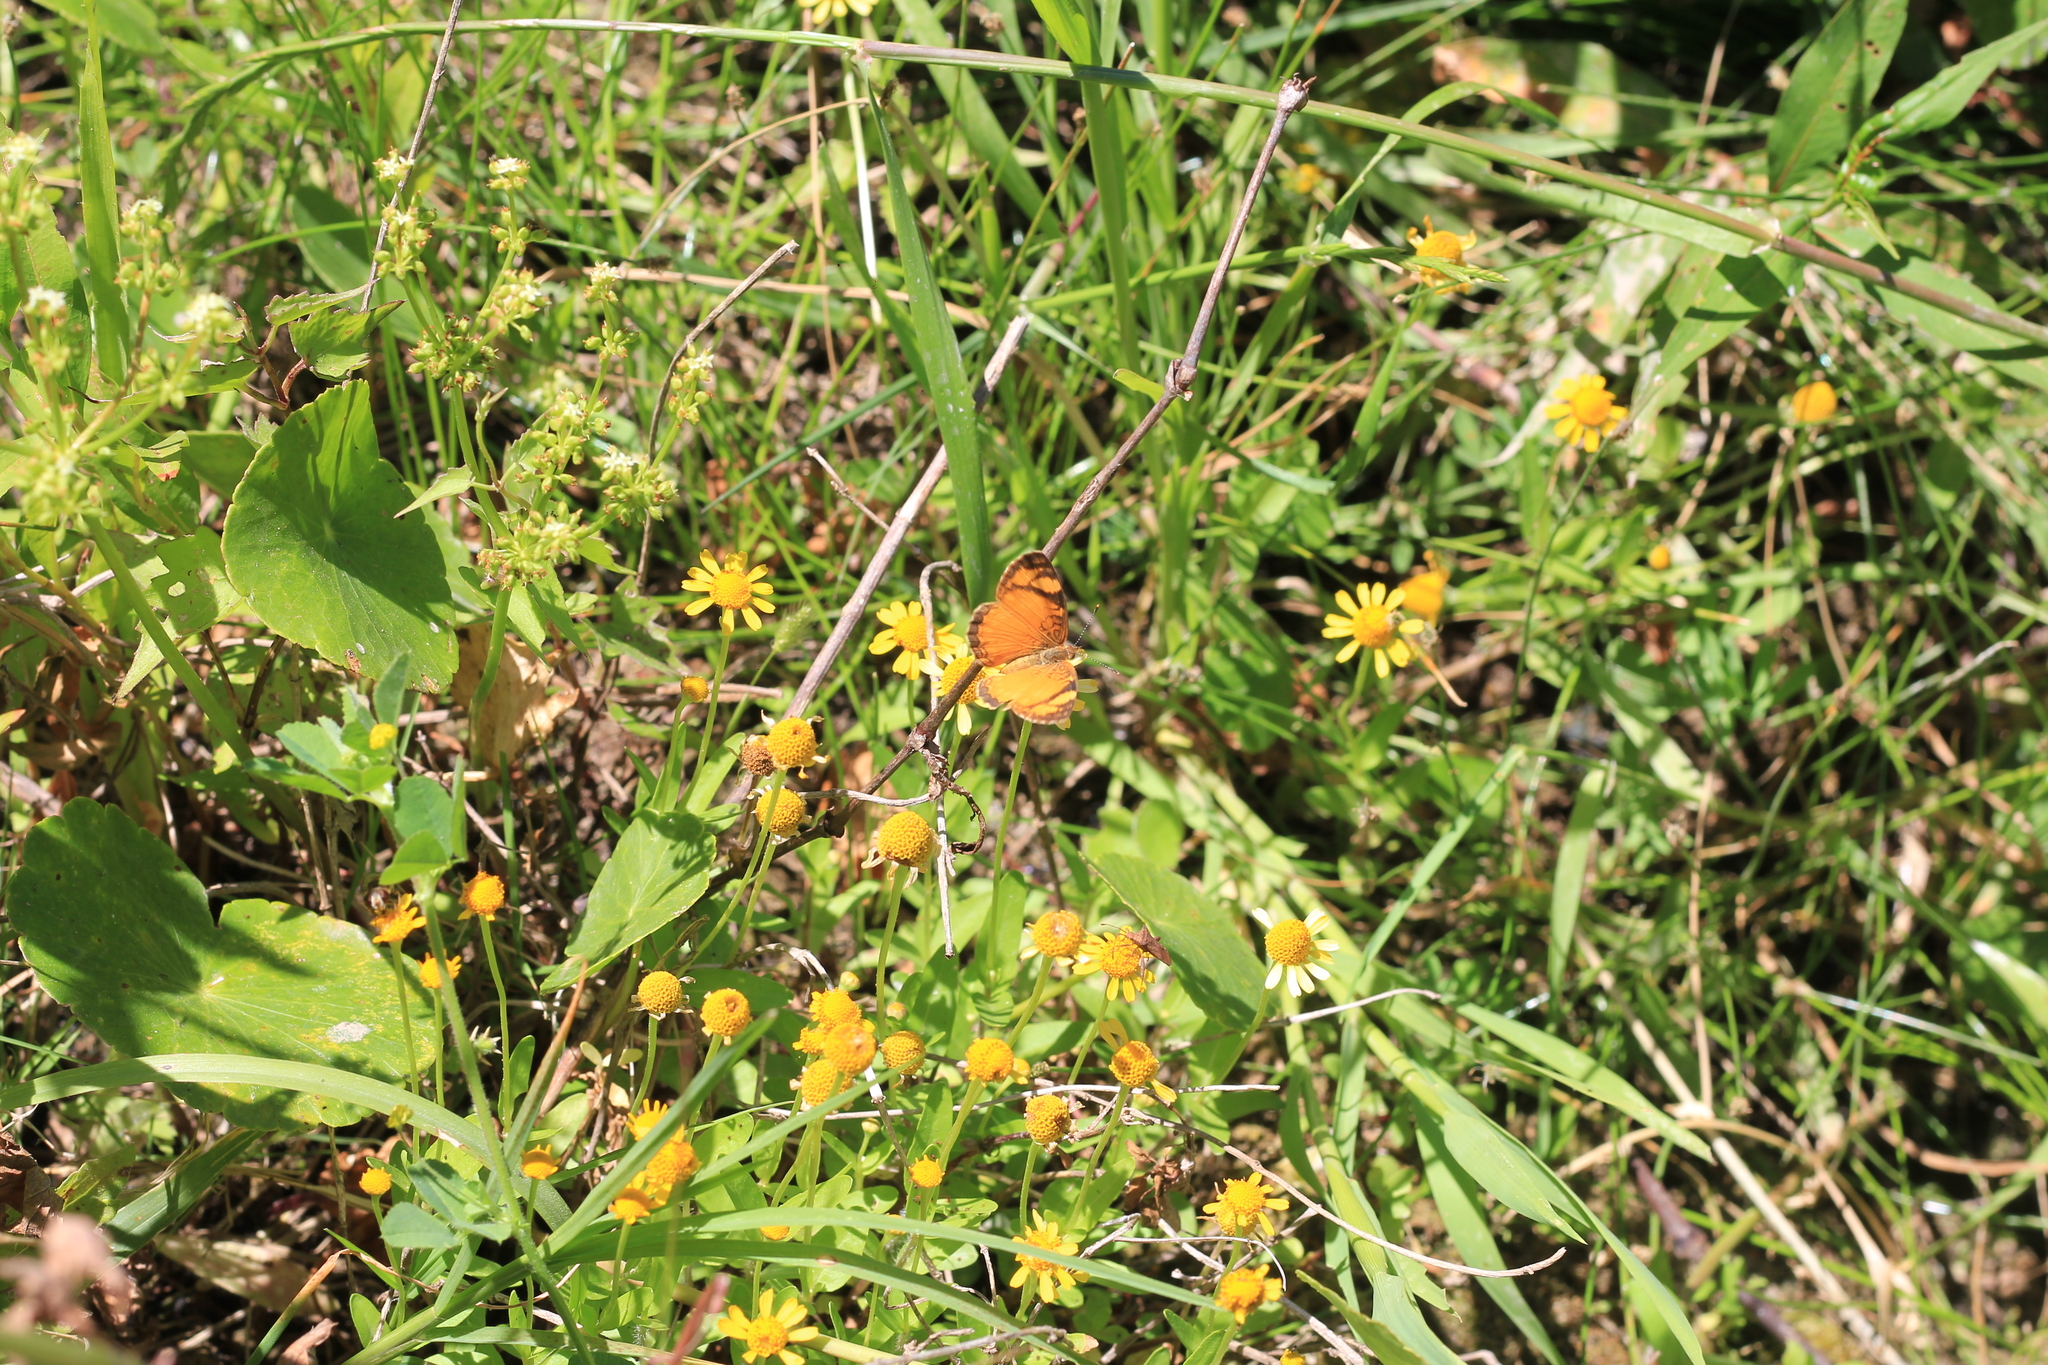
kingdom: Animalia
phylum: Arthropoda
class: Insecta
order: Lepidoptera
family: Nymphalidae
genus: Tegosa
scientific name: Tegosa claudina
